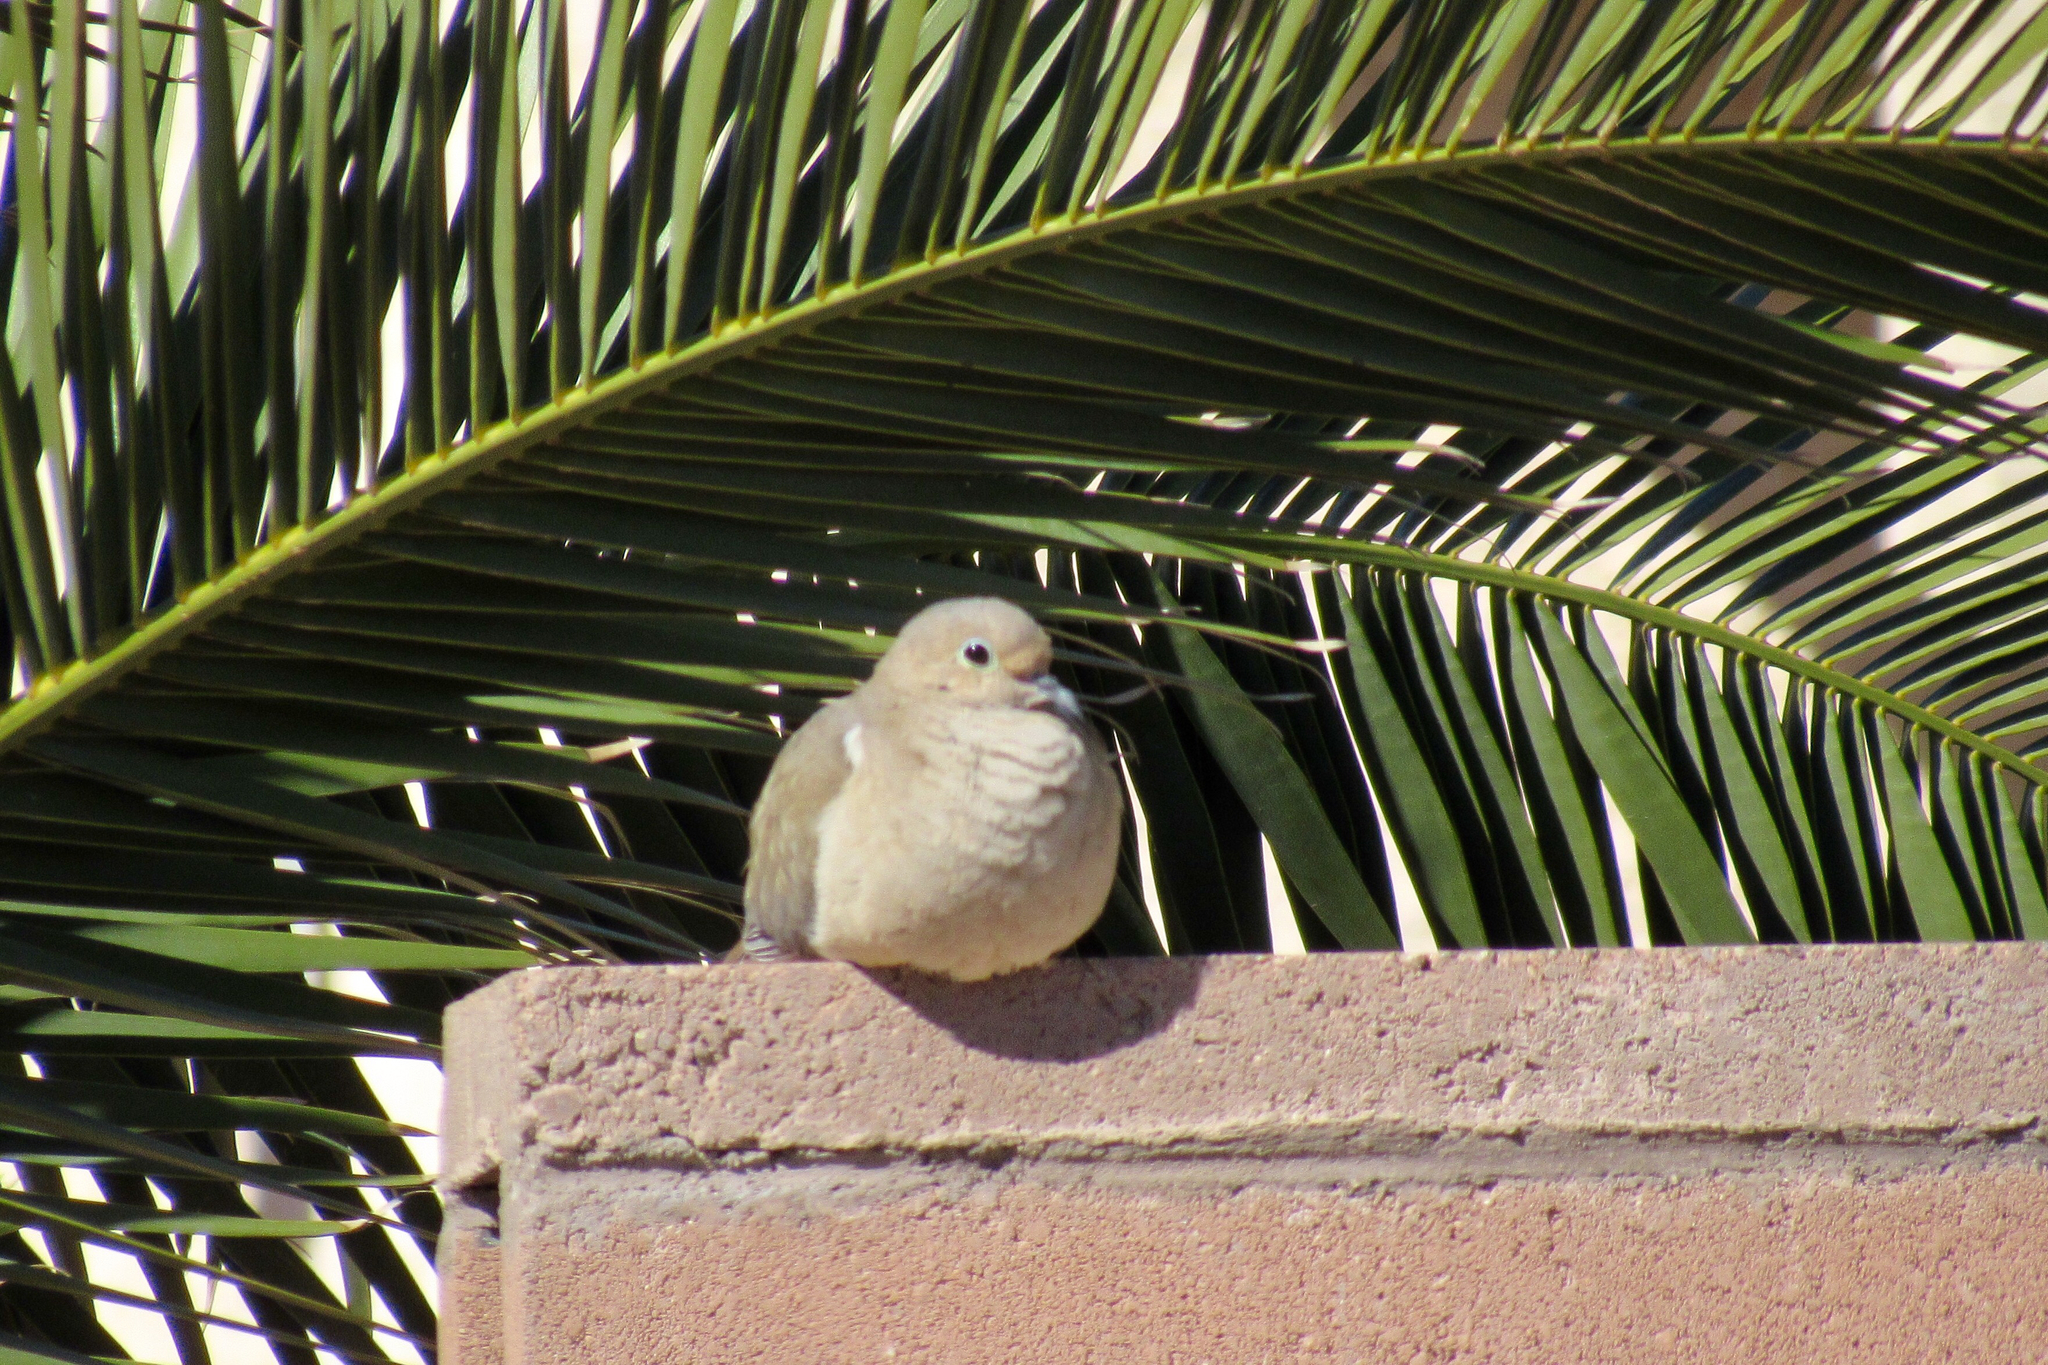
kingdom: Animalia
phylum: Chordata
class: Aves
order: Columbiformes
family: Columbidae
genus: Zenaida
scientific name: Zenaida macroura
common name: Mourning dove
